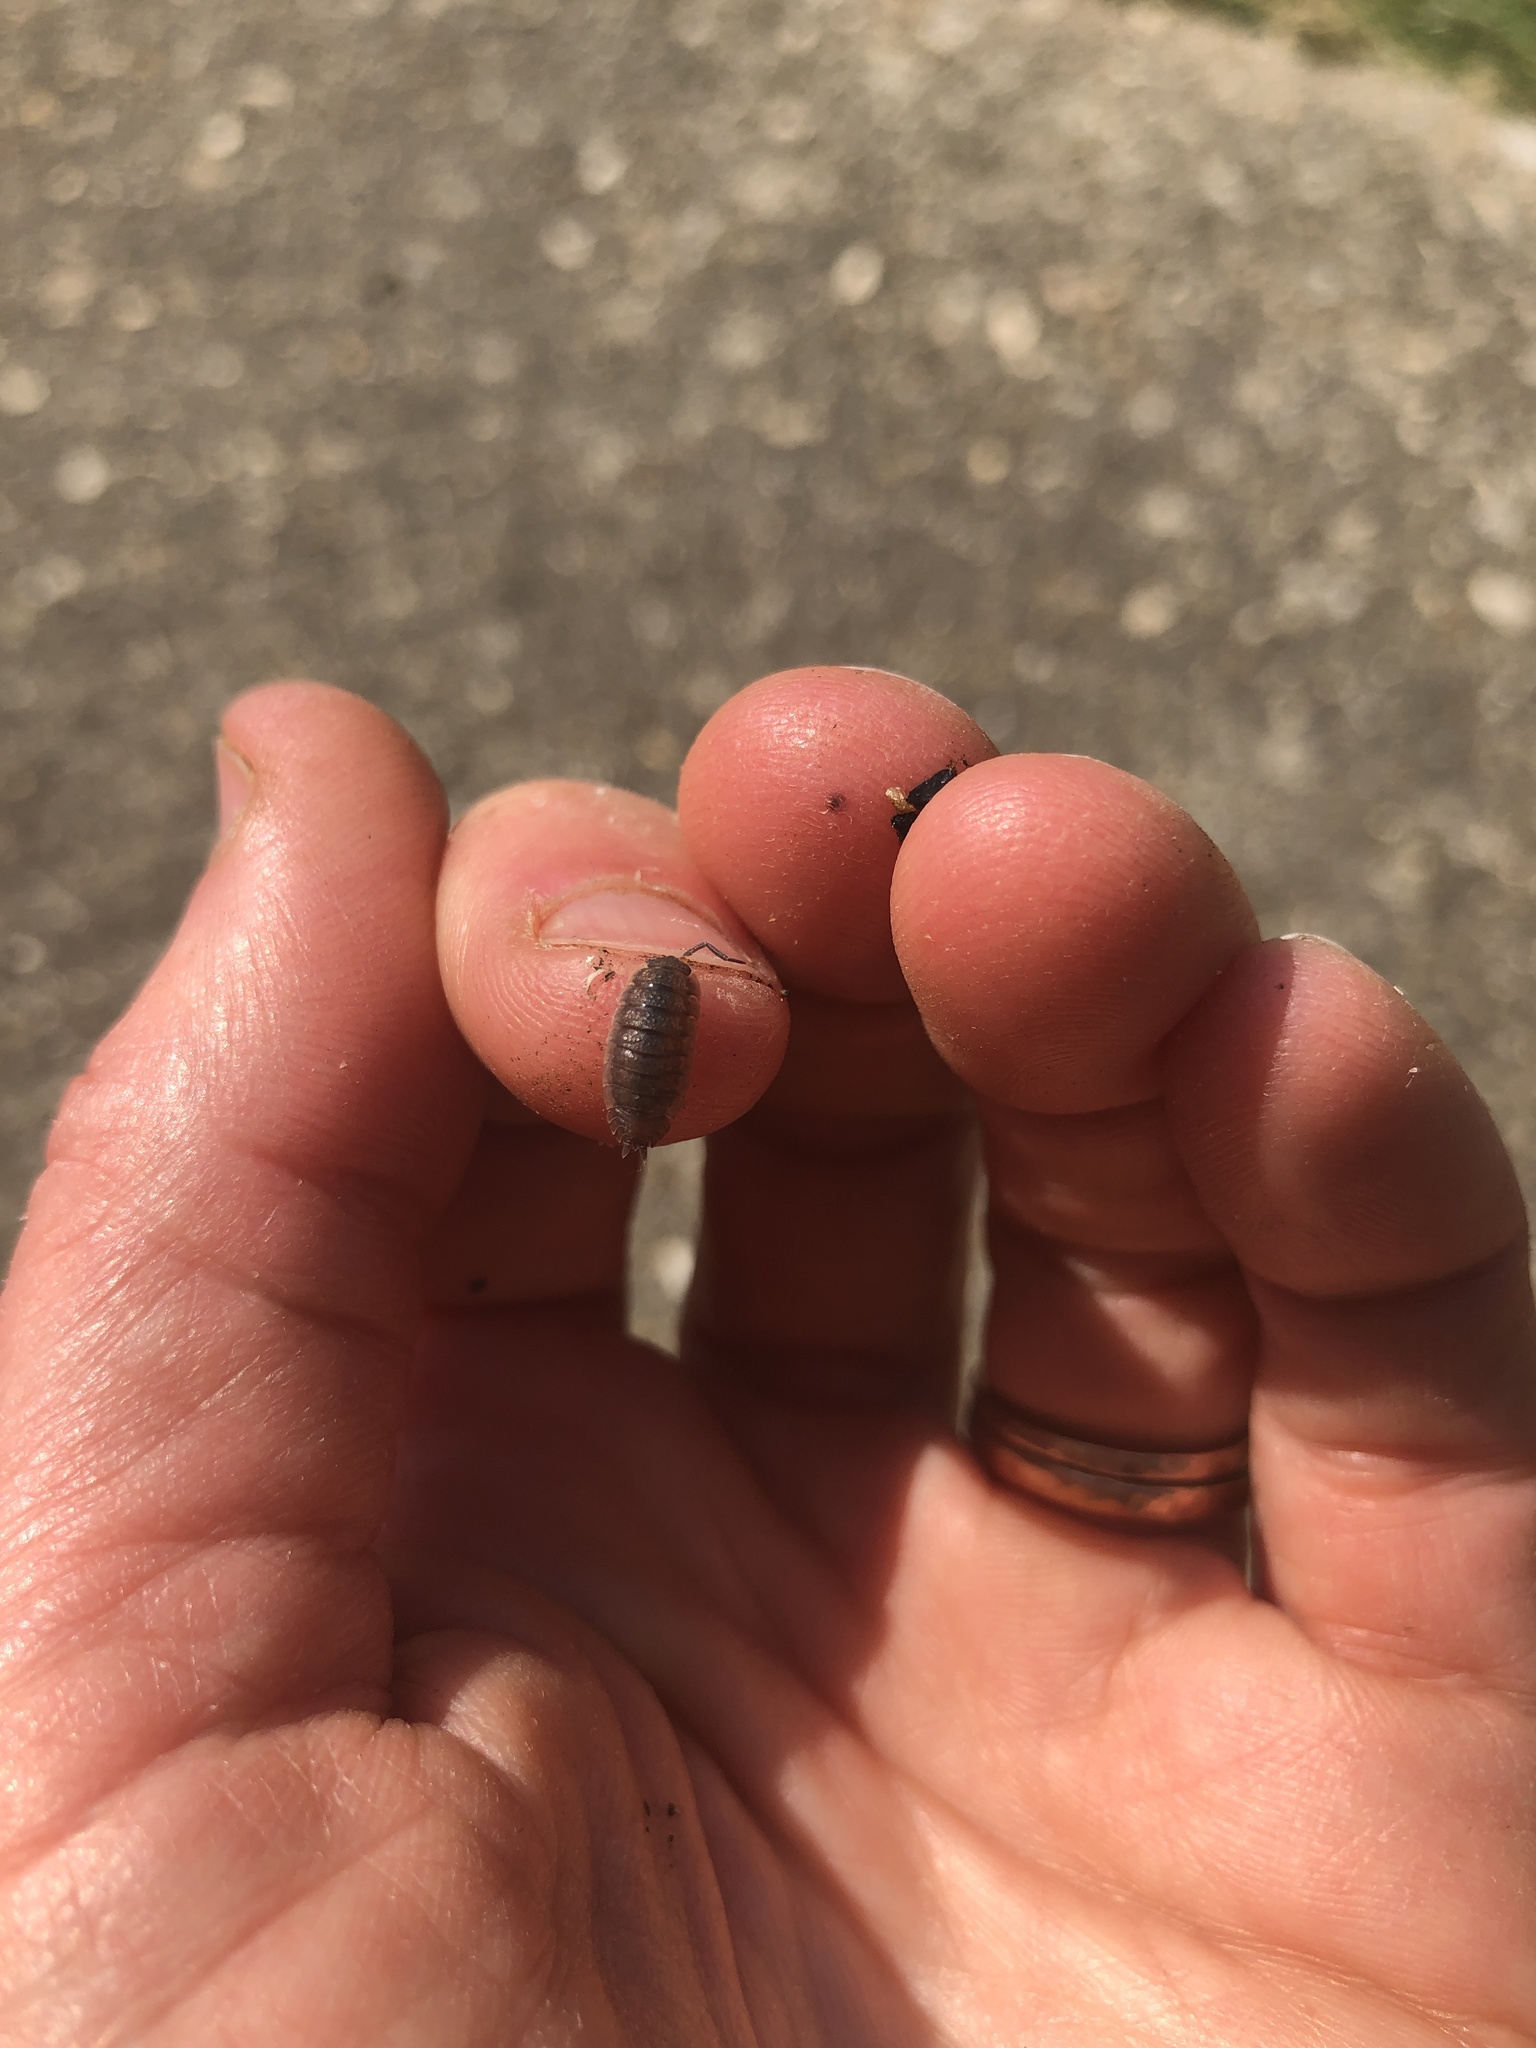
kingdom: Animalia
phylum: Arthropoda
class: Malacostraca
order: Isopoda
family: Porcellionidae
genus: Porcellio
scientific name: Porcellio scaber
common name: Common rough woodlouse
